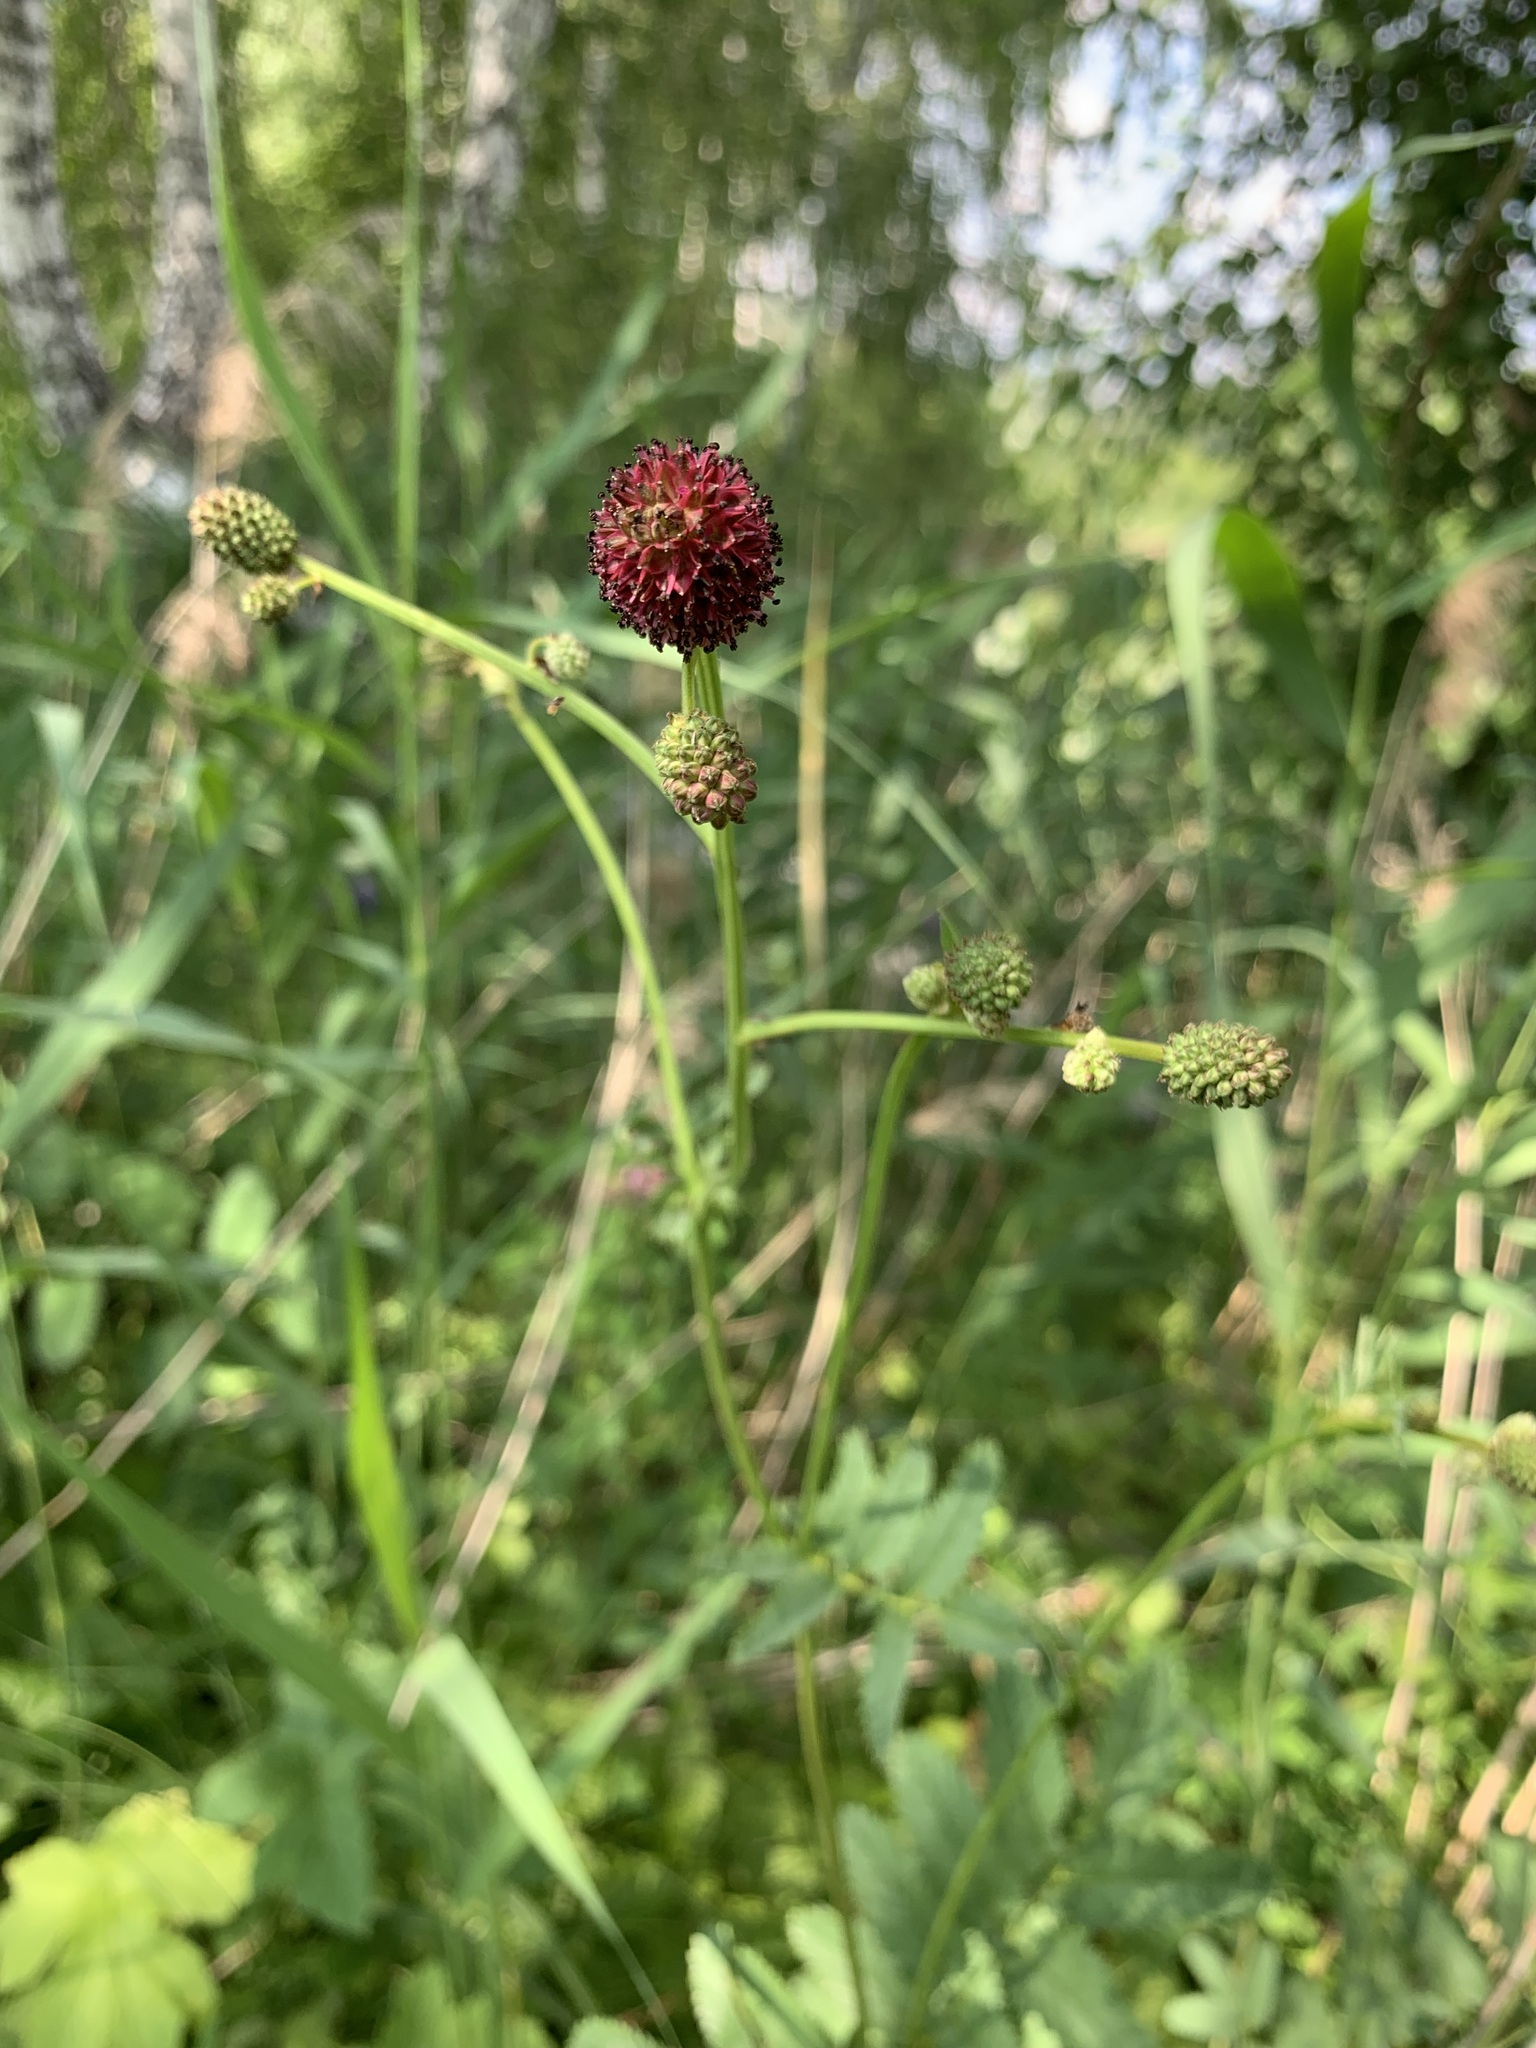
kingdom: Plantae
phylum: Tracheophyta
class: Magnoliopsida
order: Rosales
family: Rosaceae
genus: Sanguisorba
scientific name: Sanguisorba officinalis
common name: Great burnet
